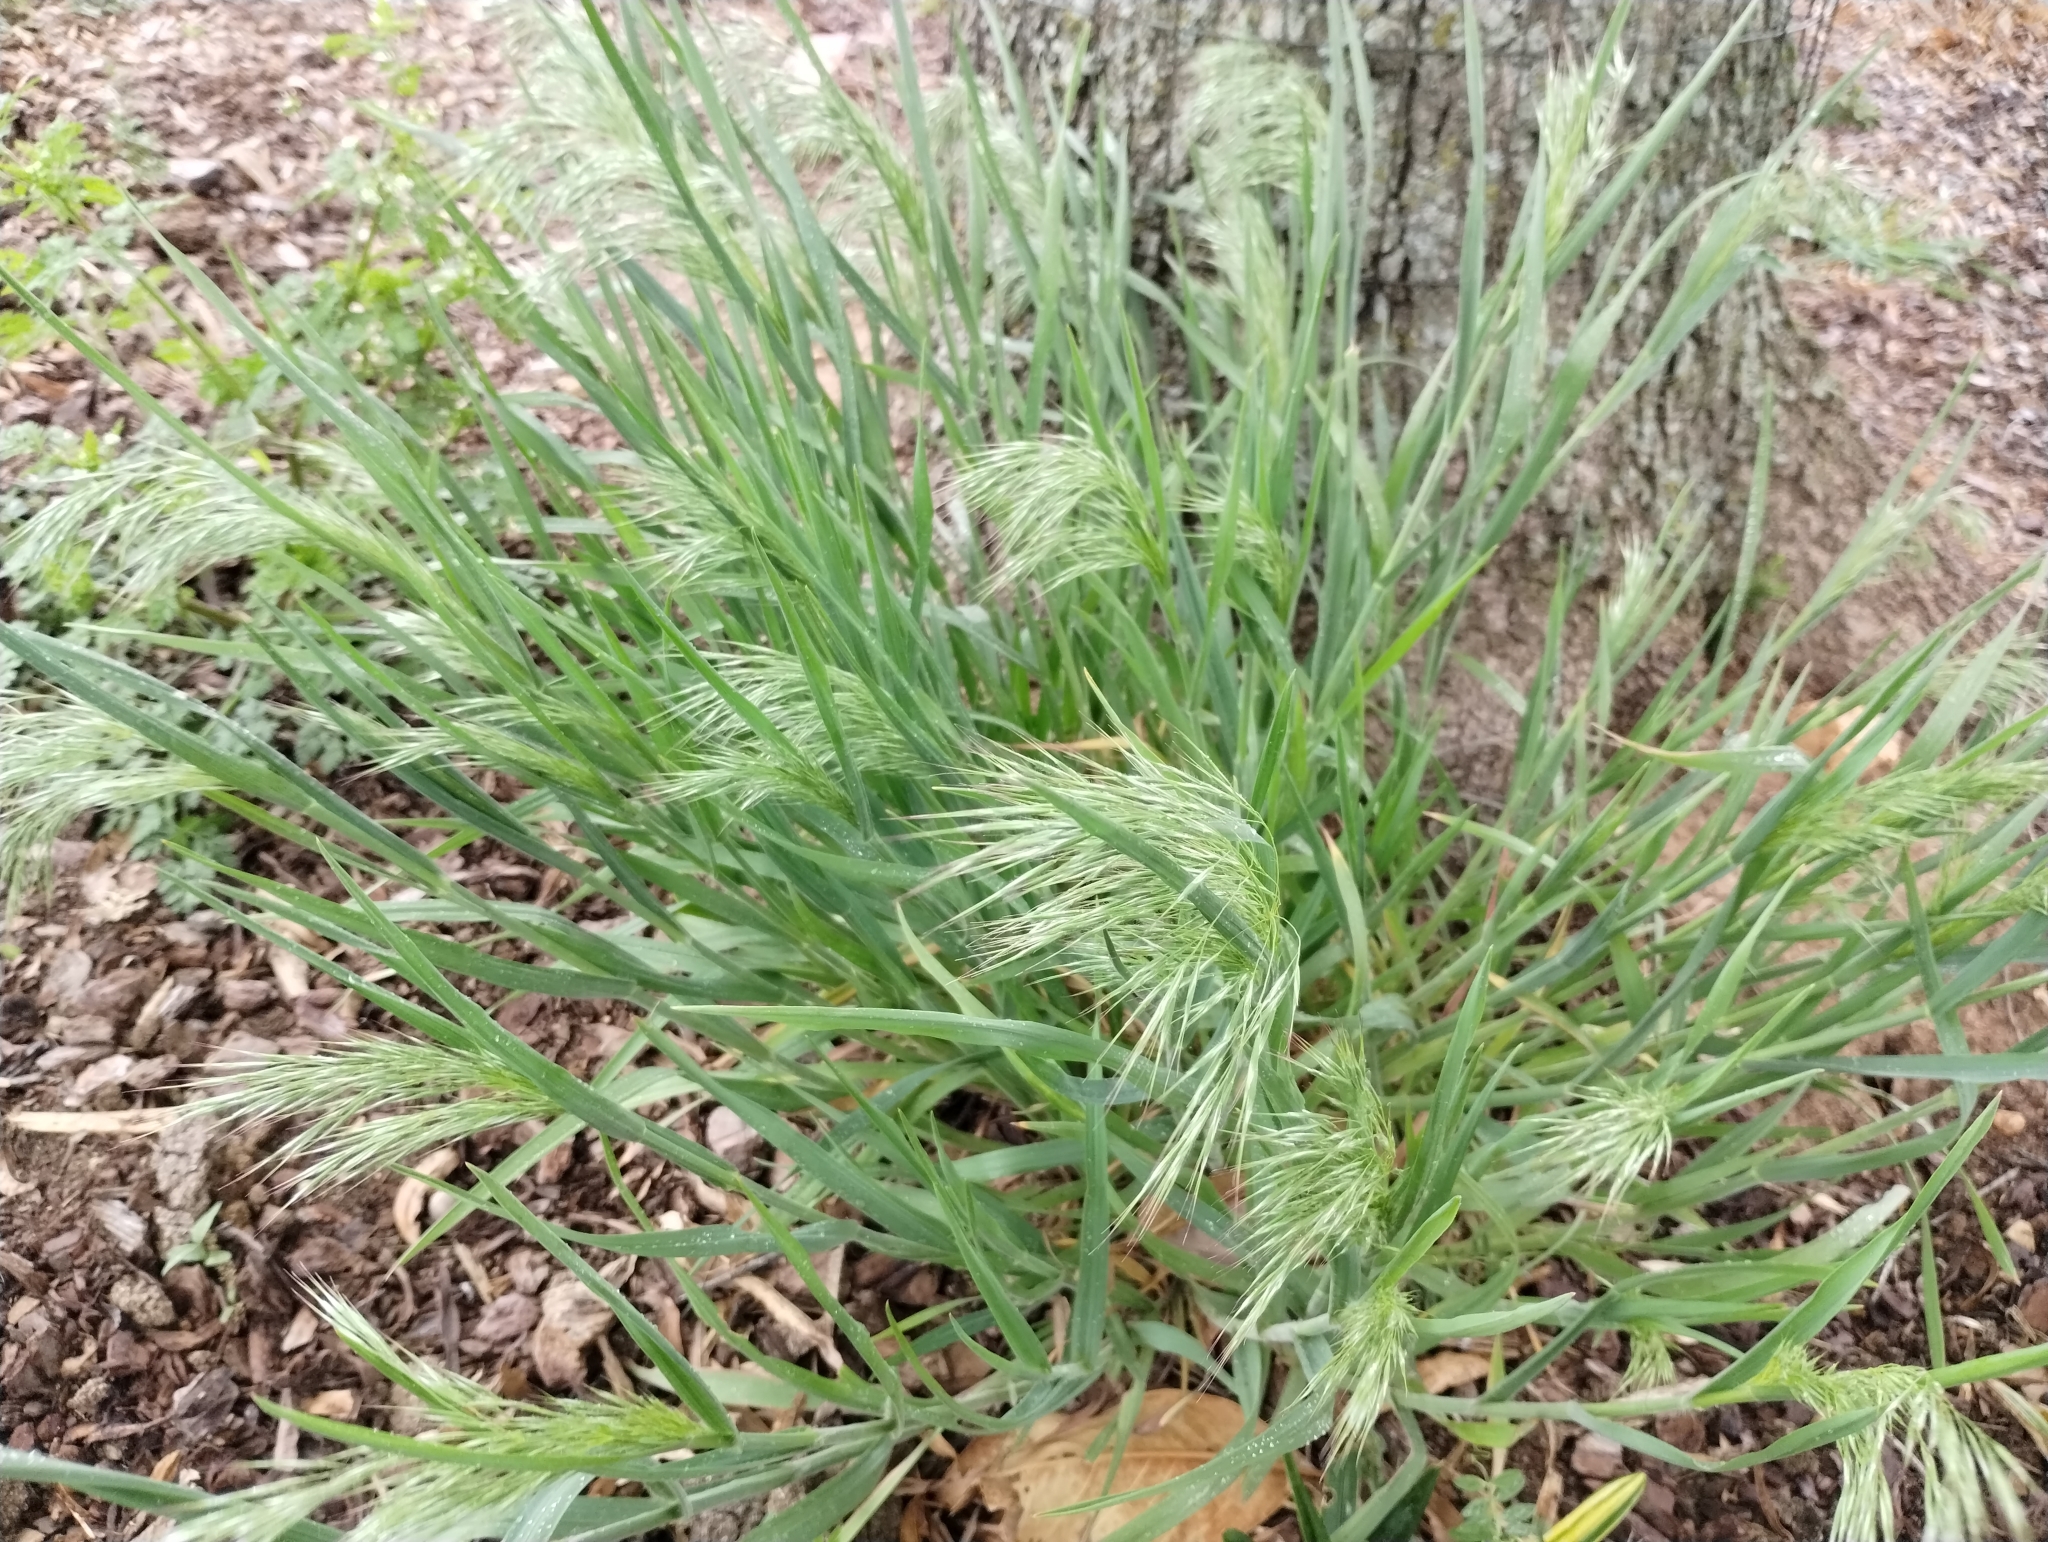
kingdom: Plantae
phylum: Tracheophyta
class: Liliopsida
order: Poales
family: Poaceae
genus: Bromus
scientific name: Bromus tectorum
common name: Cheatgrass
